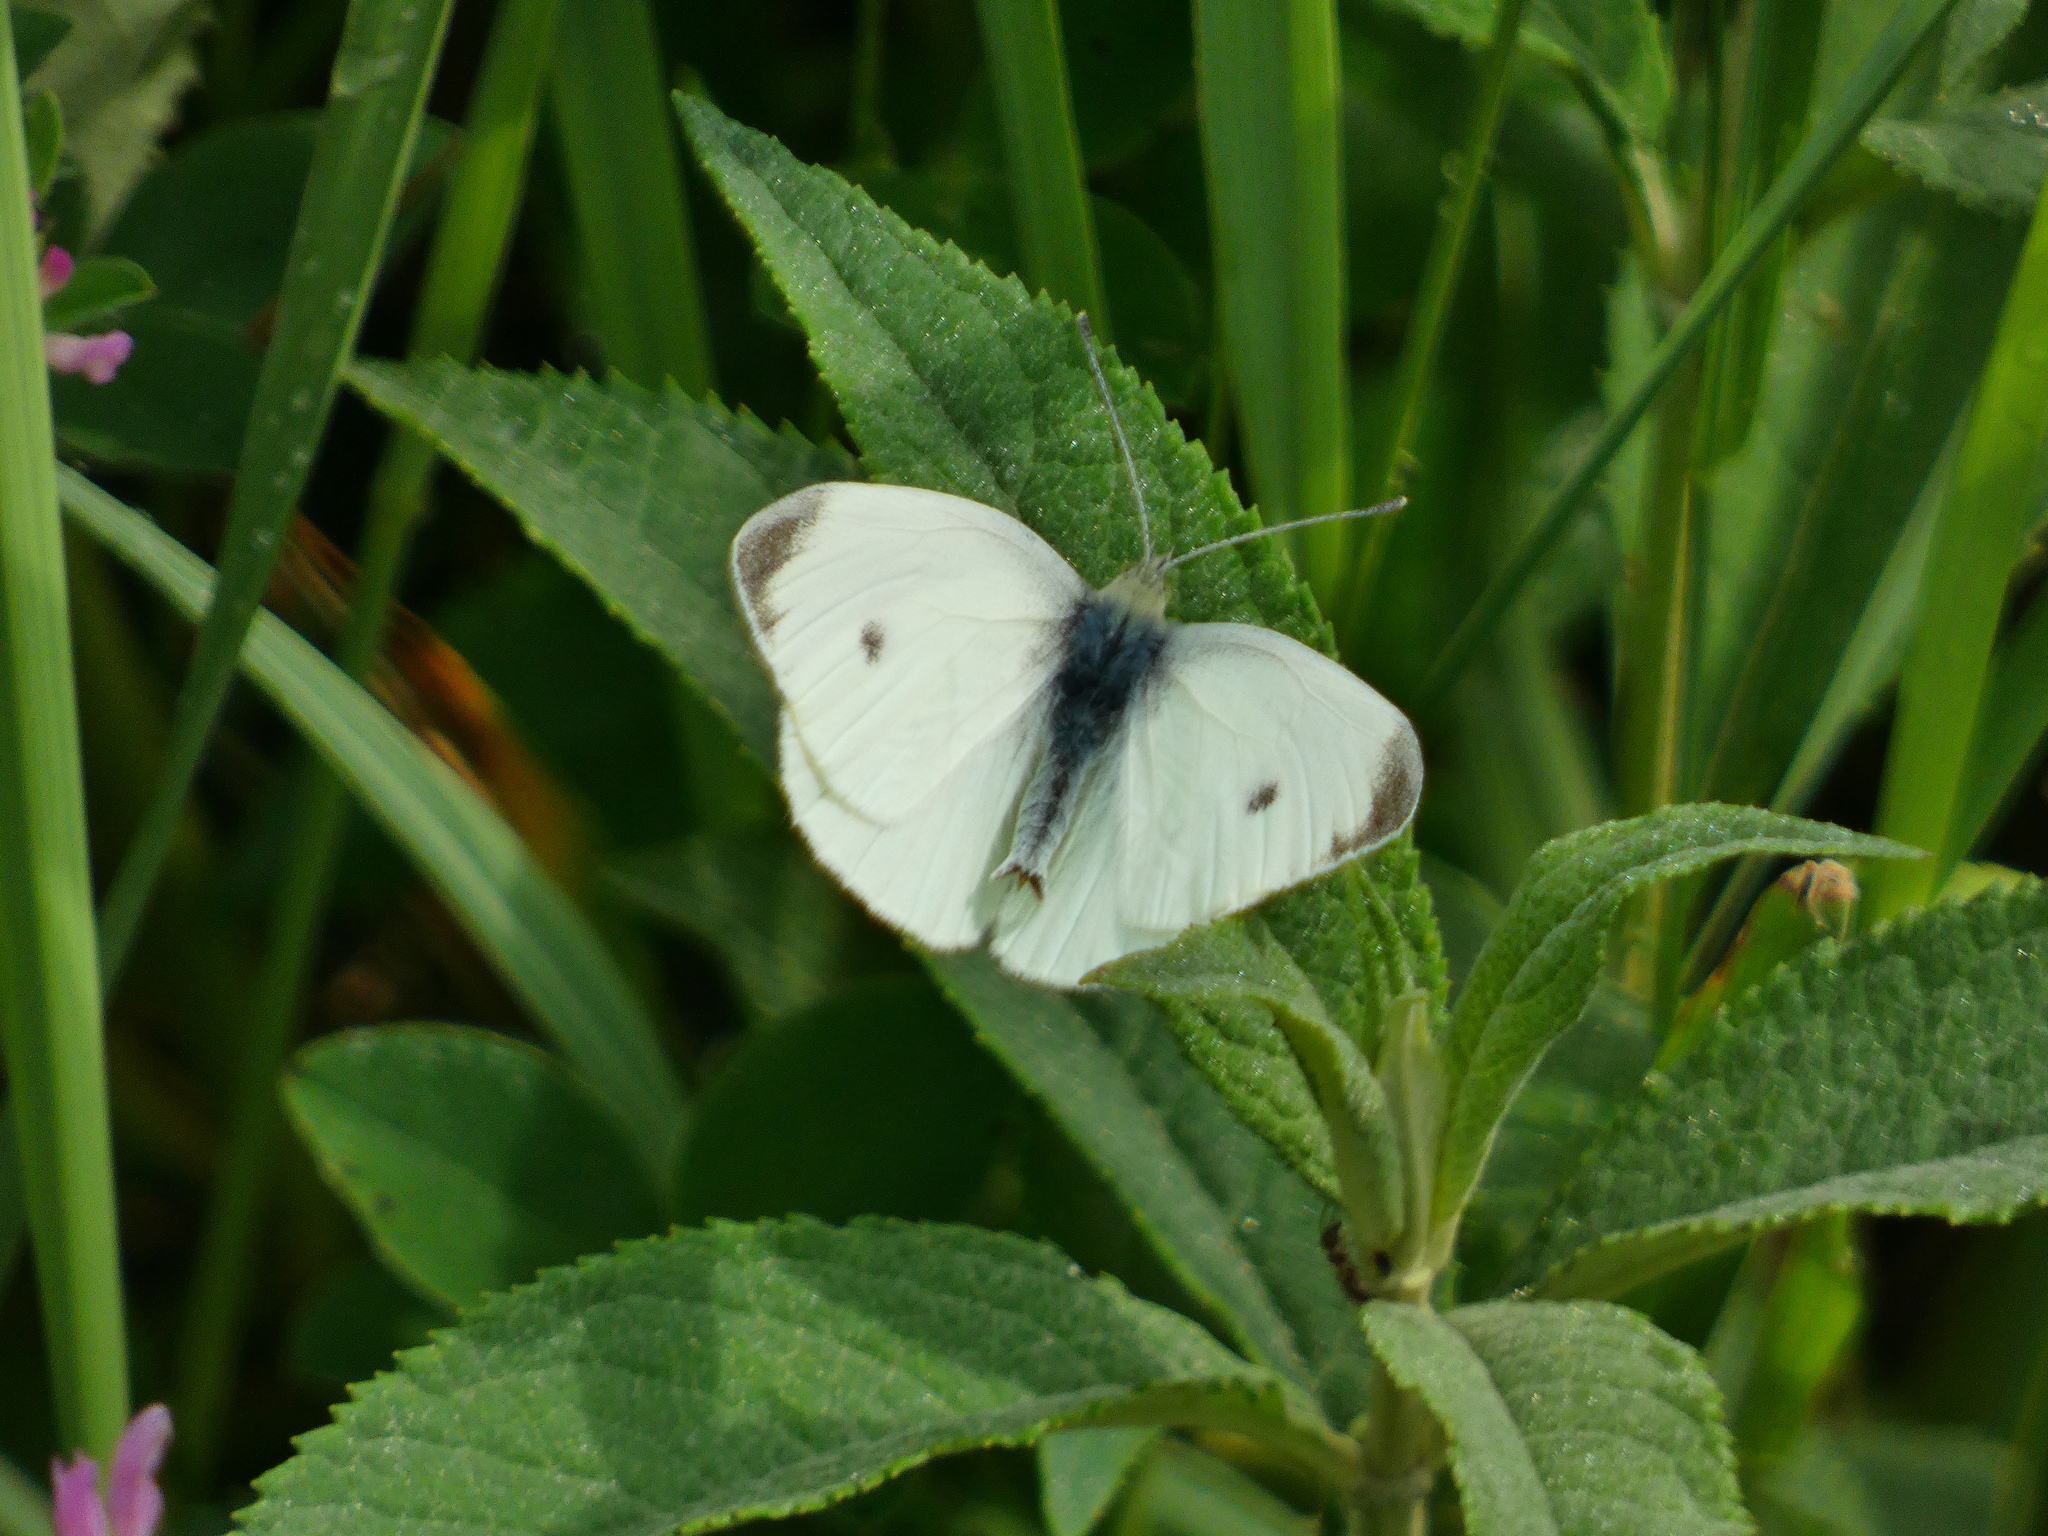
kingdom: Animalia
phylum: Arthropoda
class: Insecta
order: Lepidoptera
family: Pieridae
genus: Pieris
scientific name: Pieris rapae
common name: Small white
